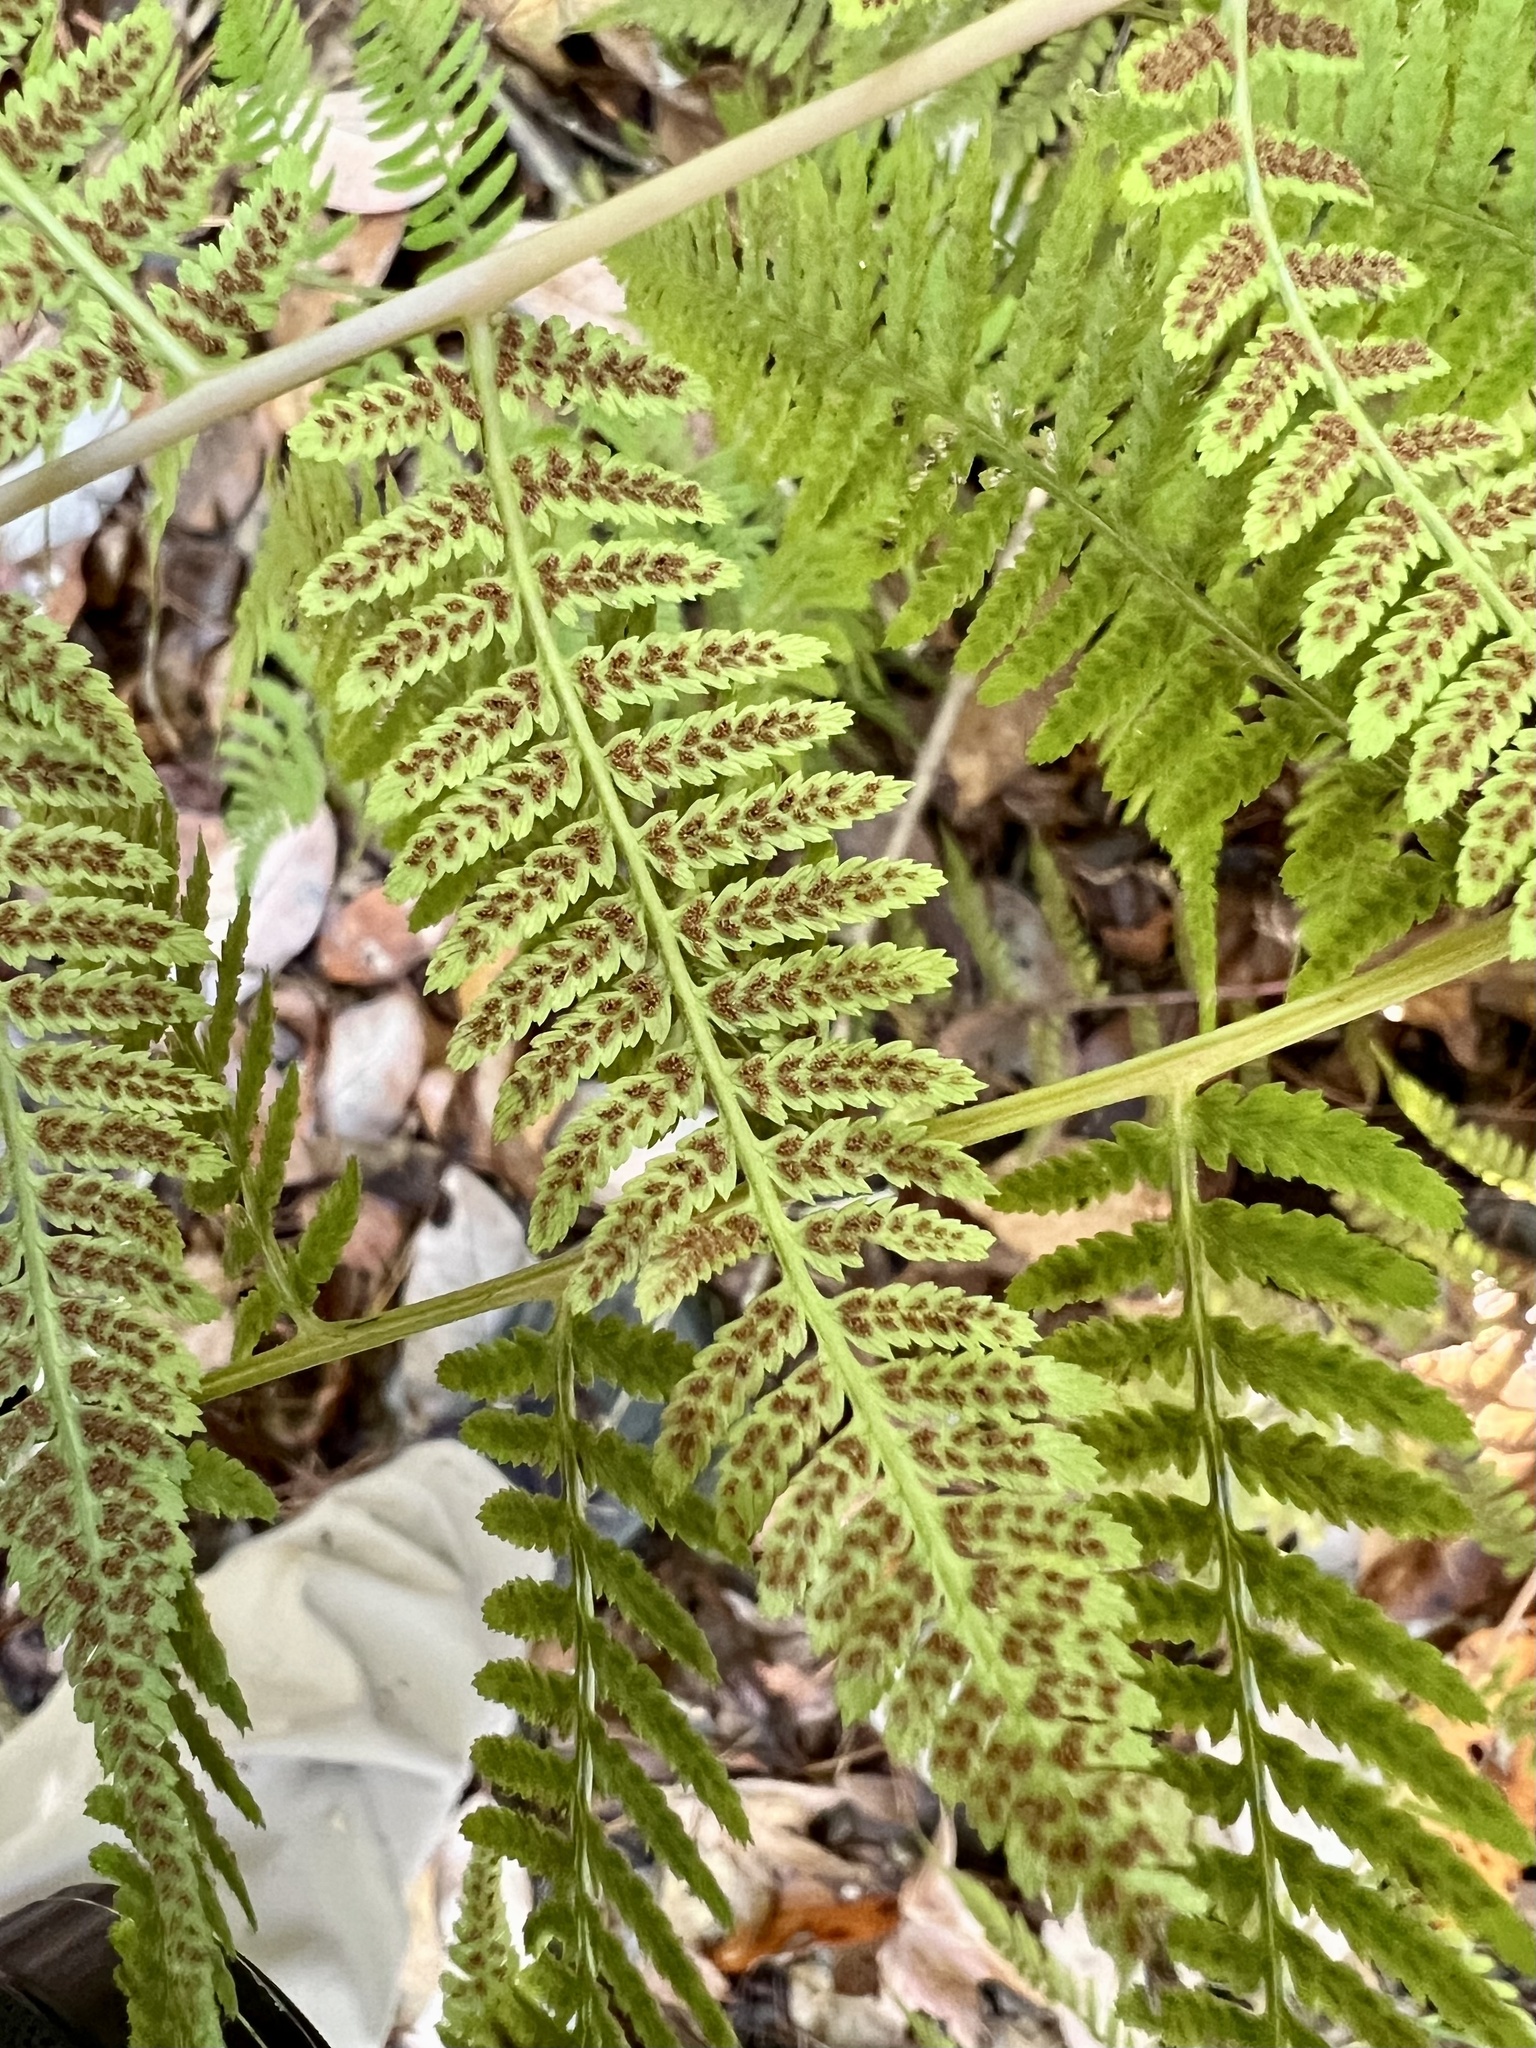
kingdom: Plantae
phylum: Tracheophyta
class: Polypodiopsida
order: Polypodiales
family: Athyriaceae
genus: Athyrium
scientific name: Athyrium asplenioides
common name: Southern lady fern
